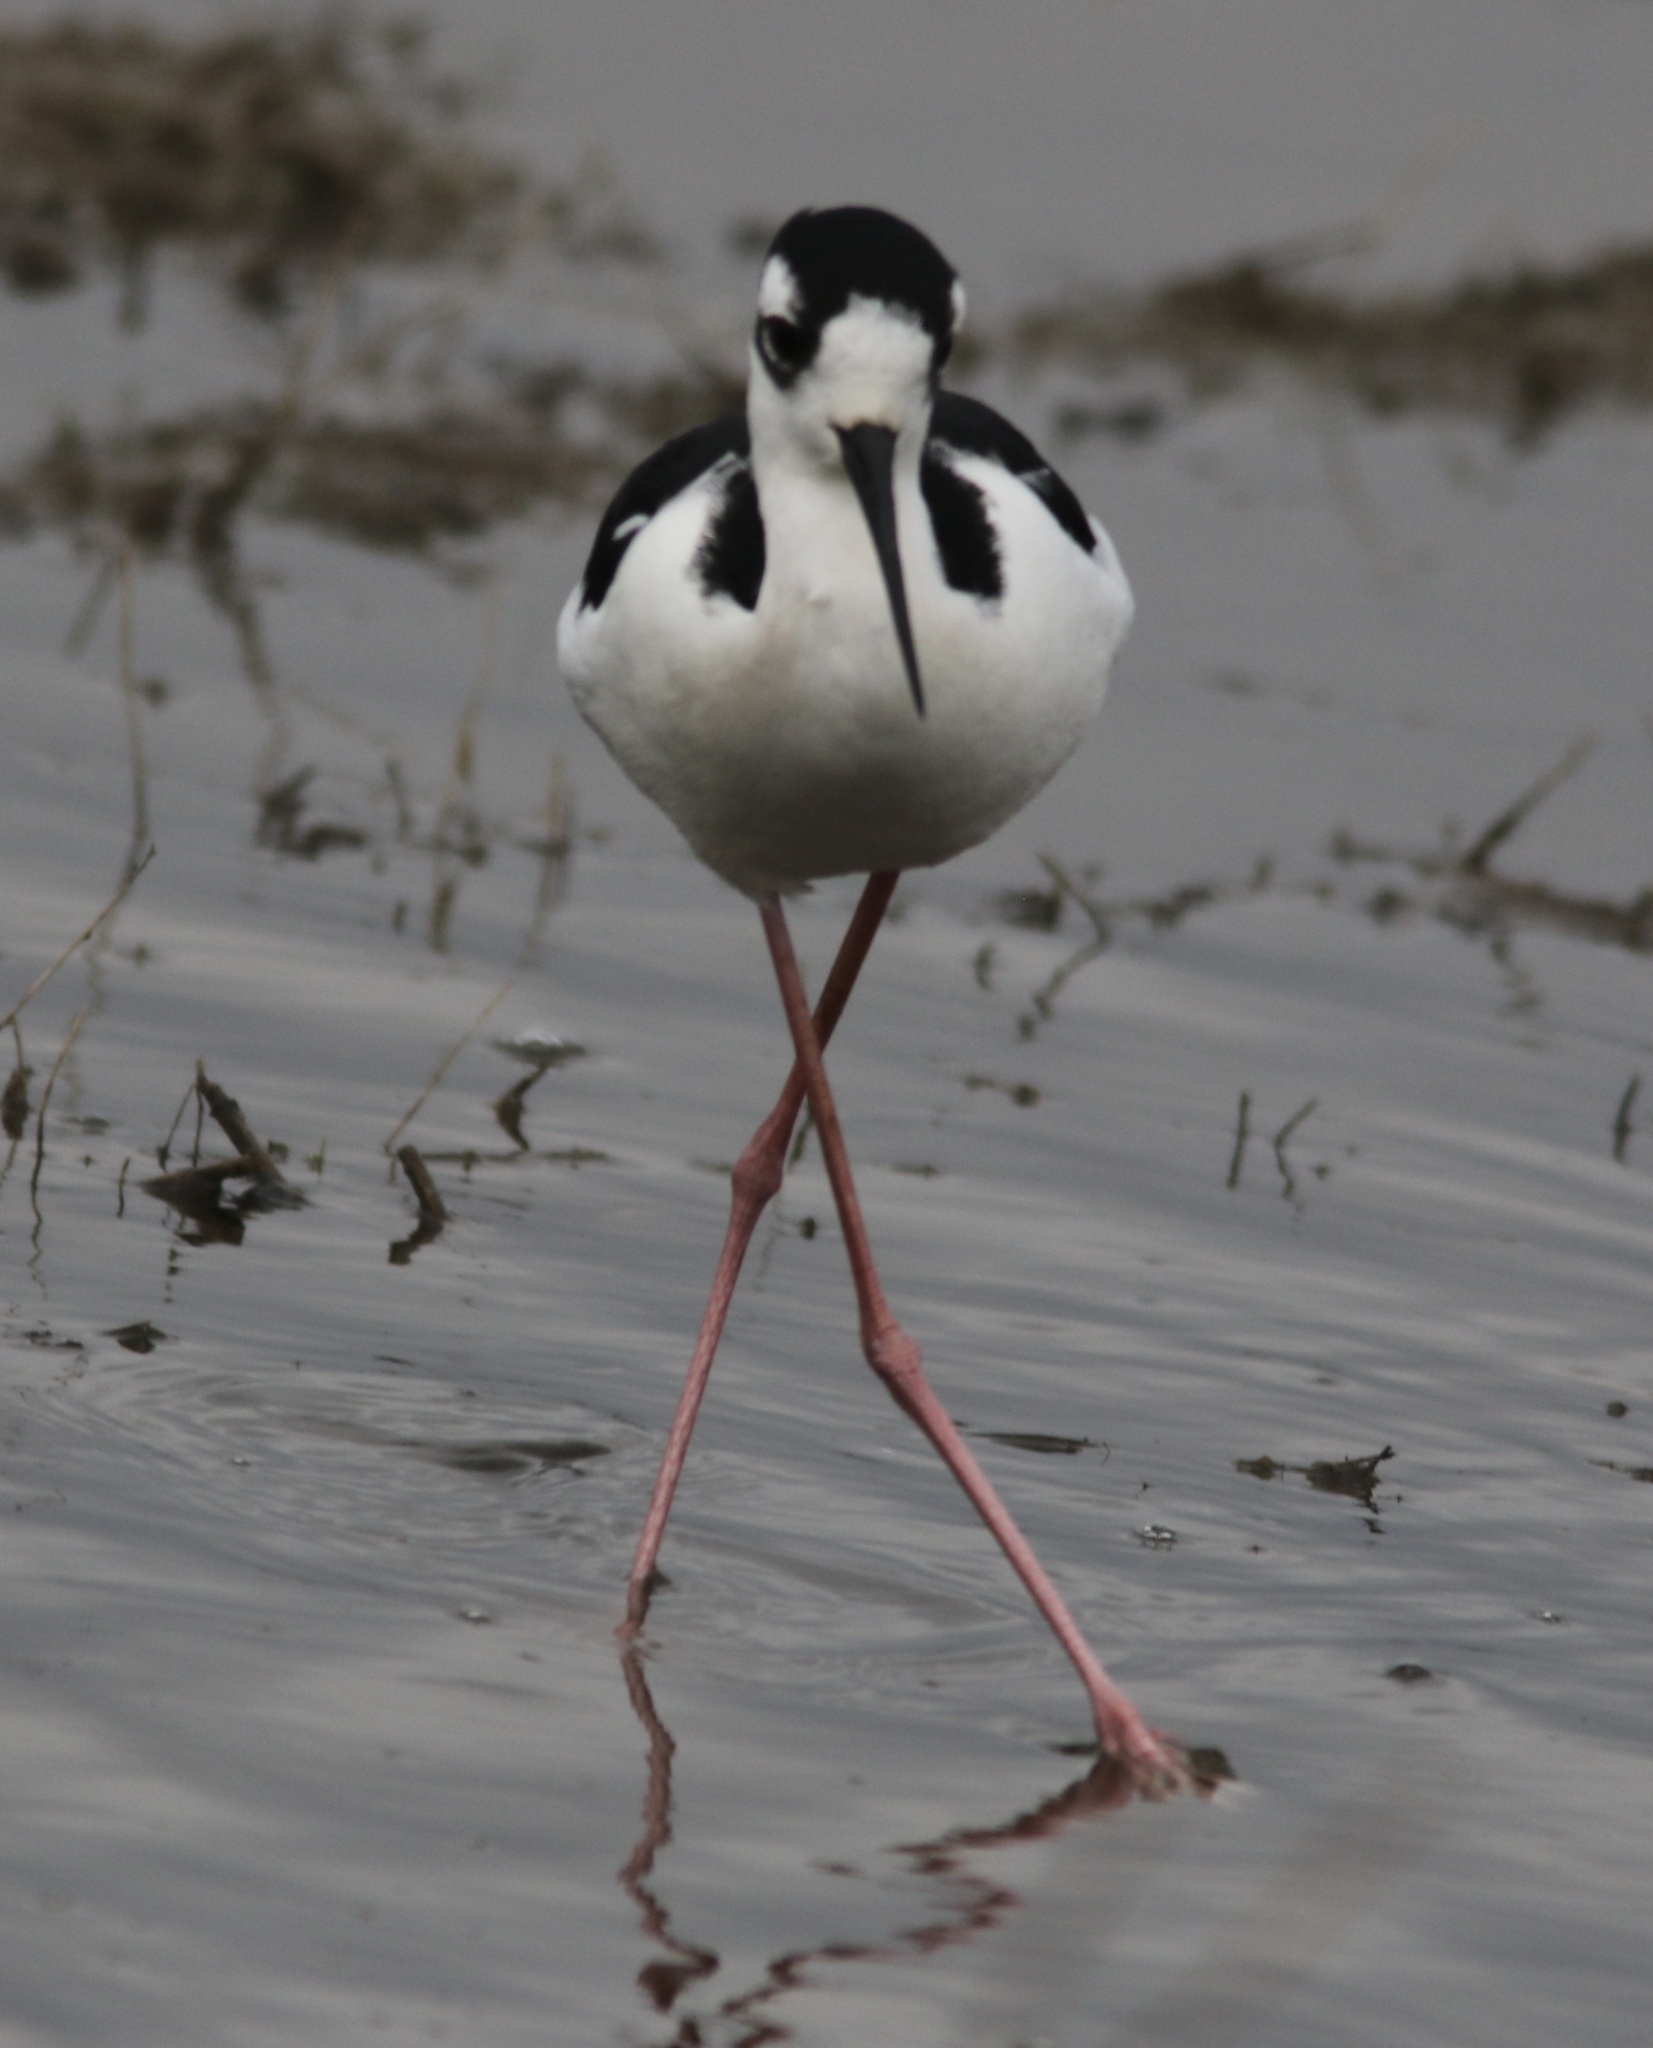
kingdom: Animalia
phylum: Chordata
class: Aves
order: Charadriiformes
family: Recurvirostridae
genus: Himantopus
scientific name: Himantopus mexicanus
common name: Black-necked stilt
